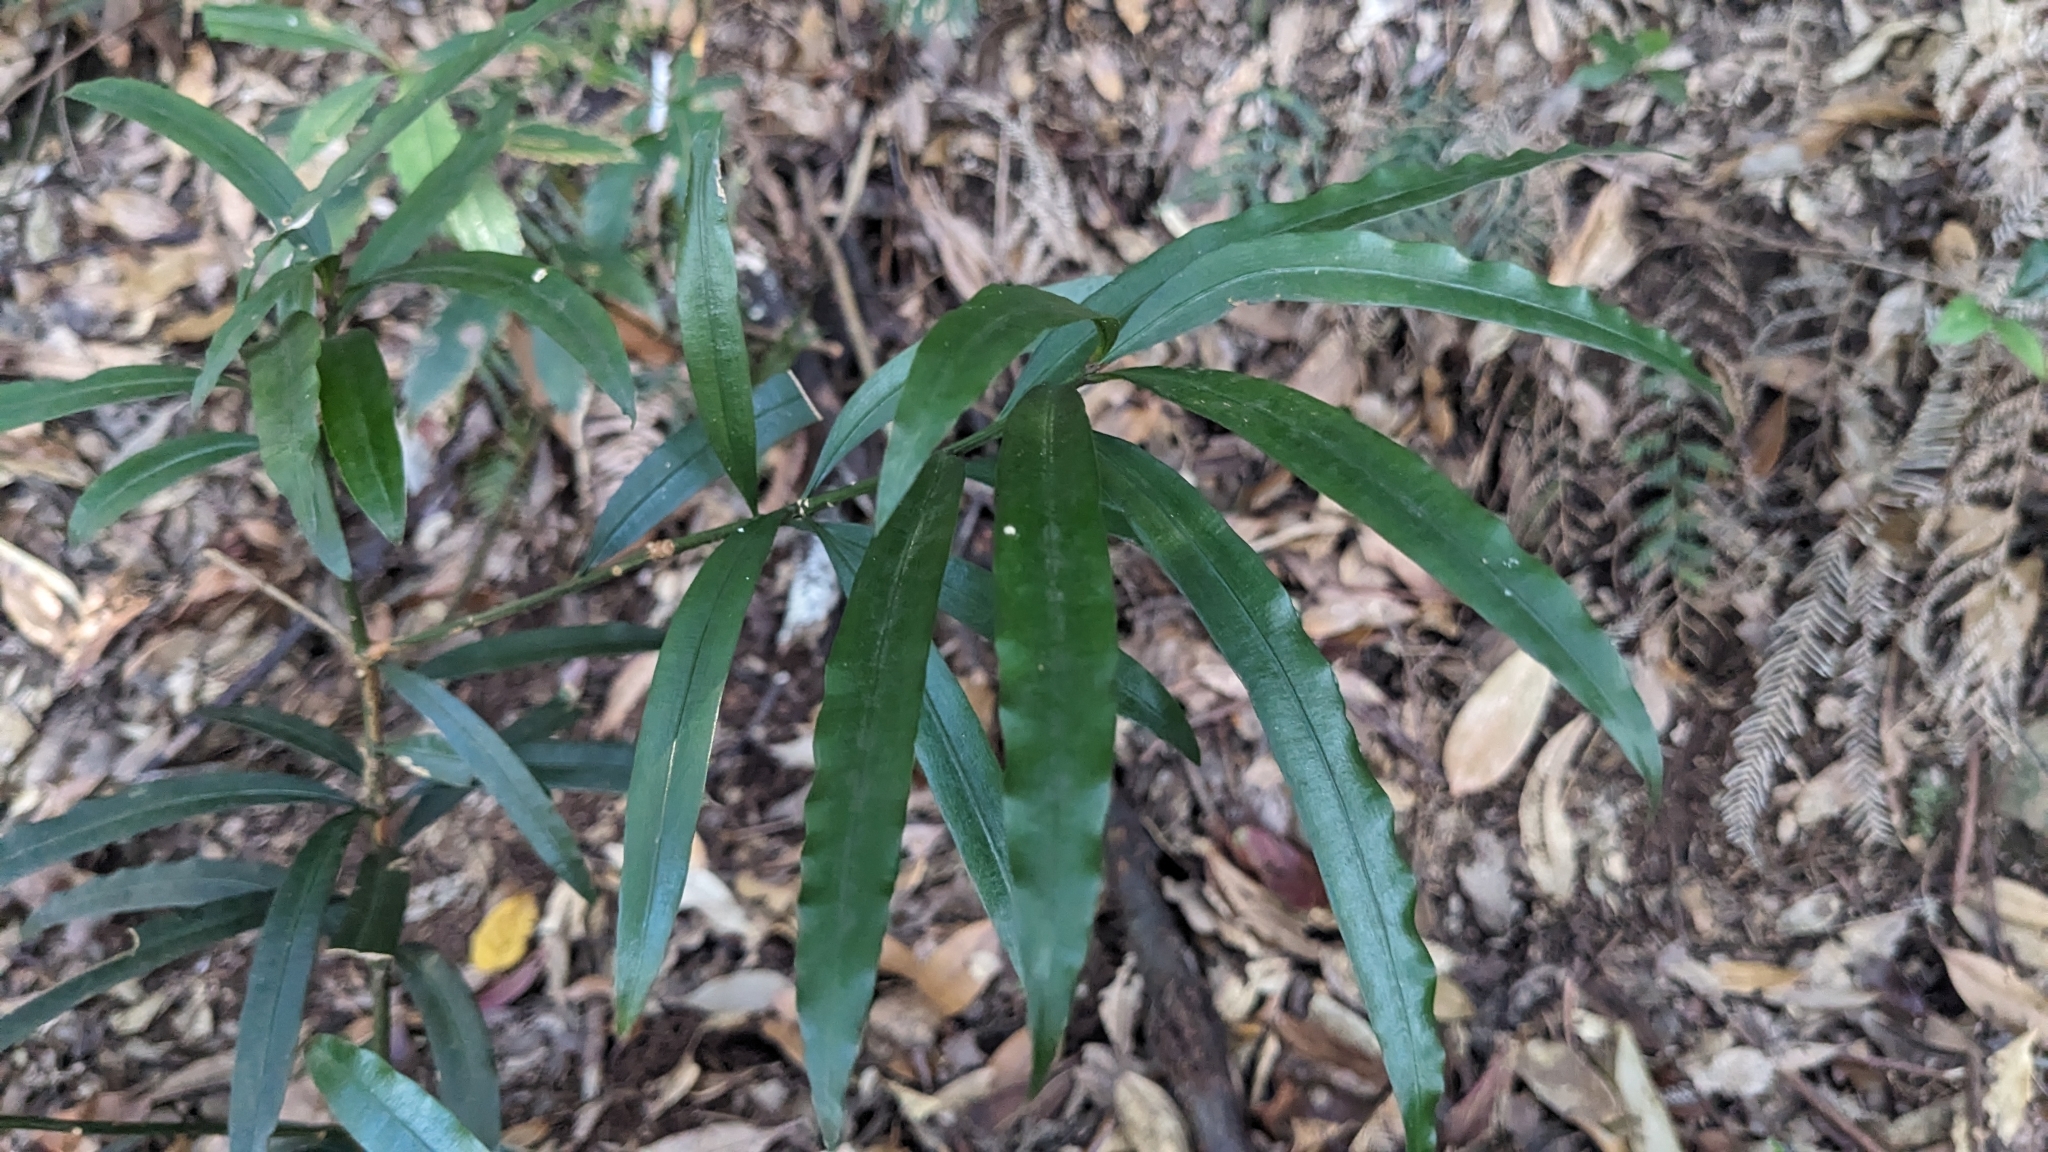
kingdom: Plantae
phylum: Tracheophyta
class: Pinopsida
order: Pinales
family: Podocarpaceae
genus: Podocarpus
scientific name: Podocarpus nakaii
